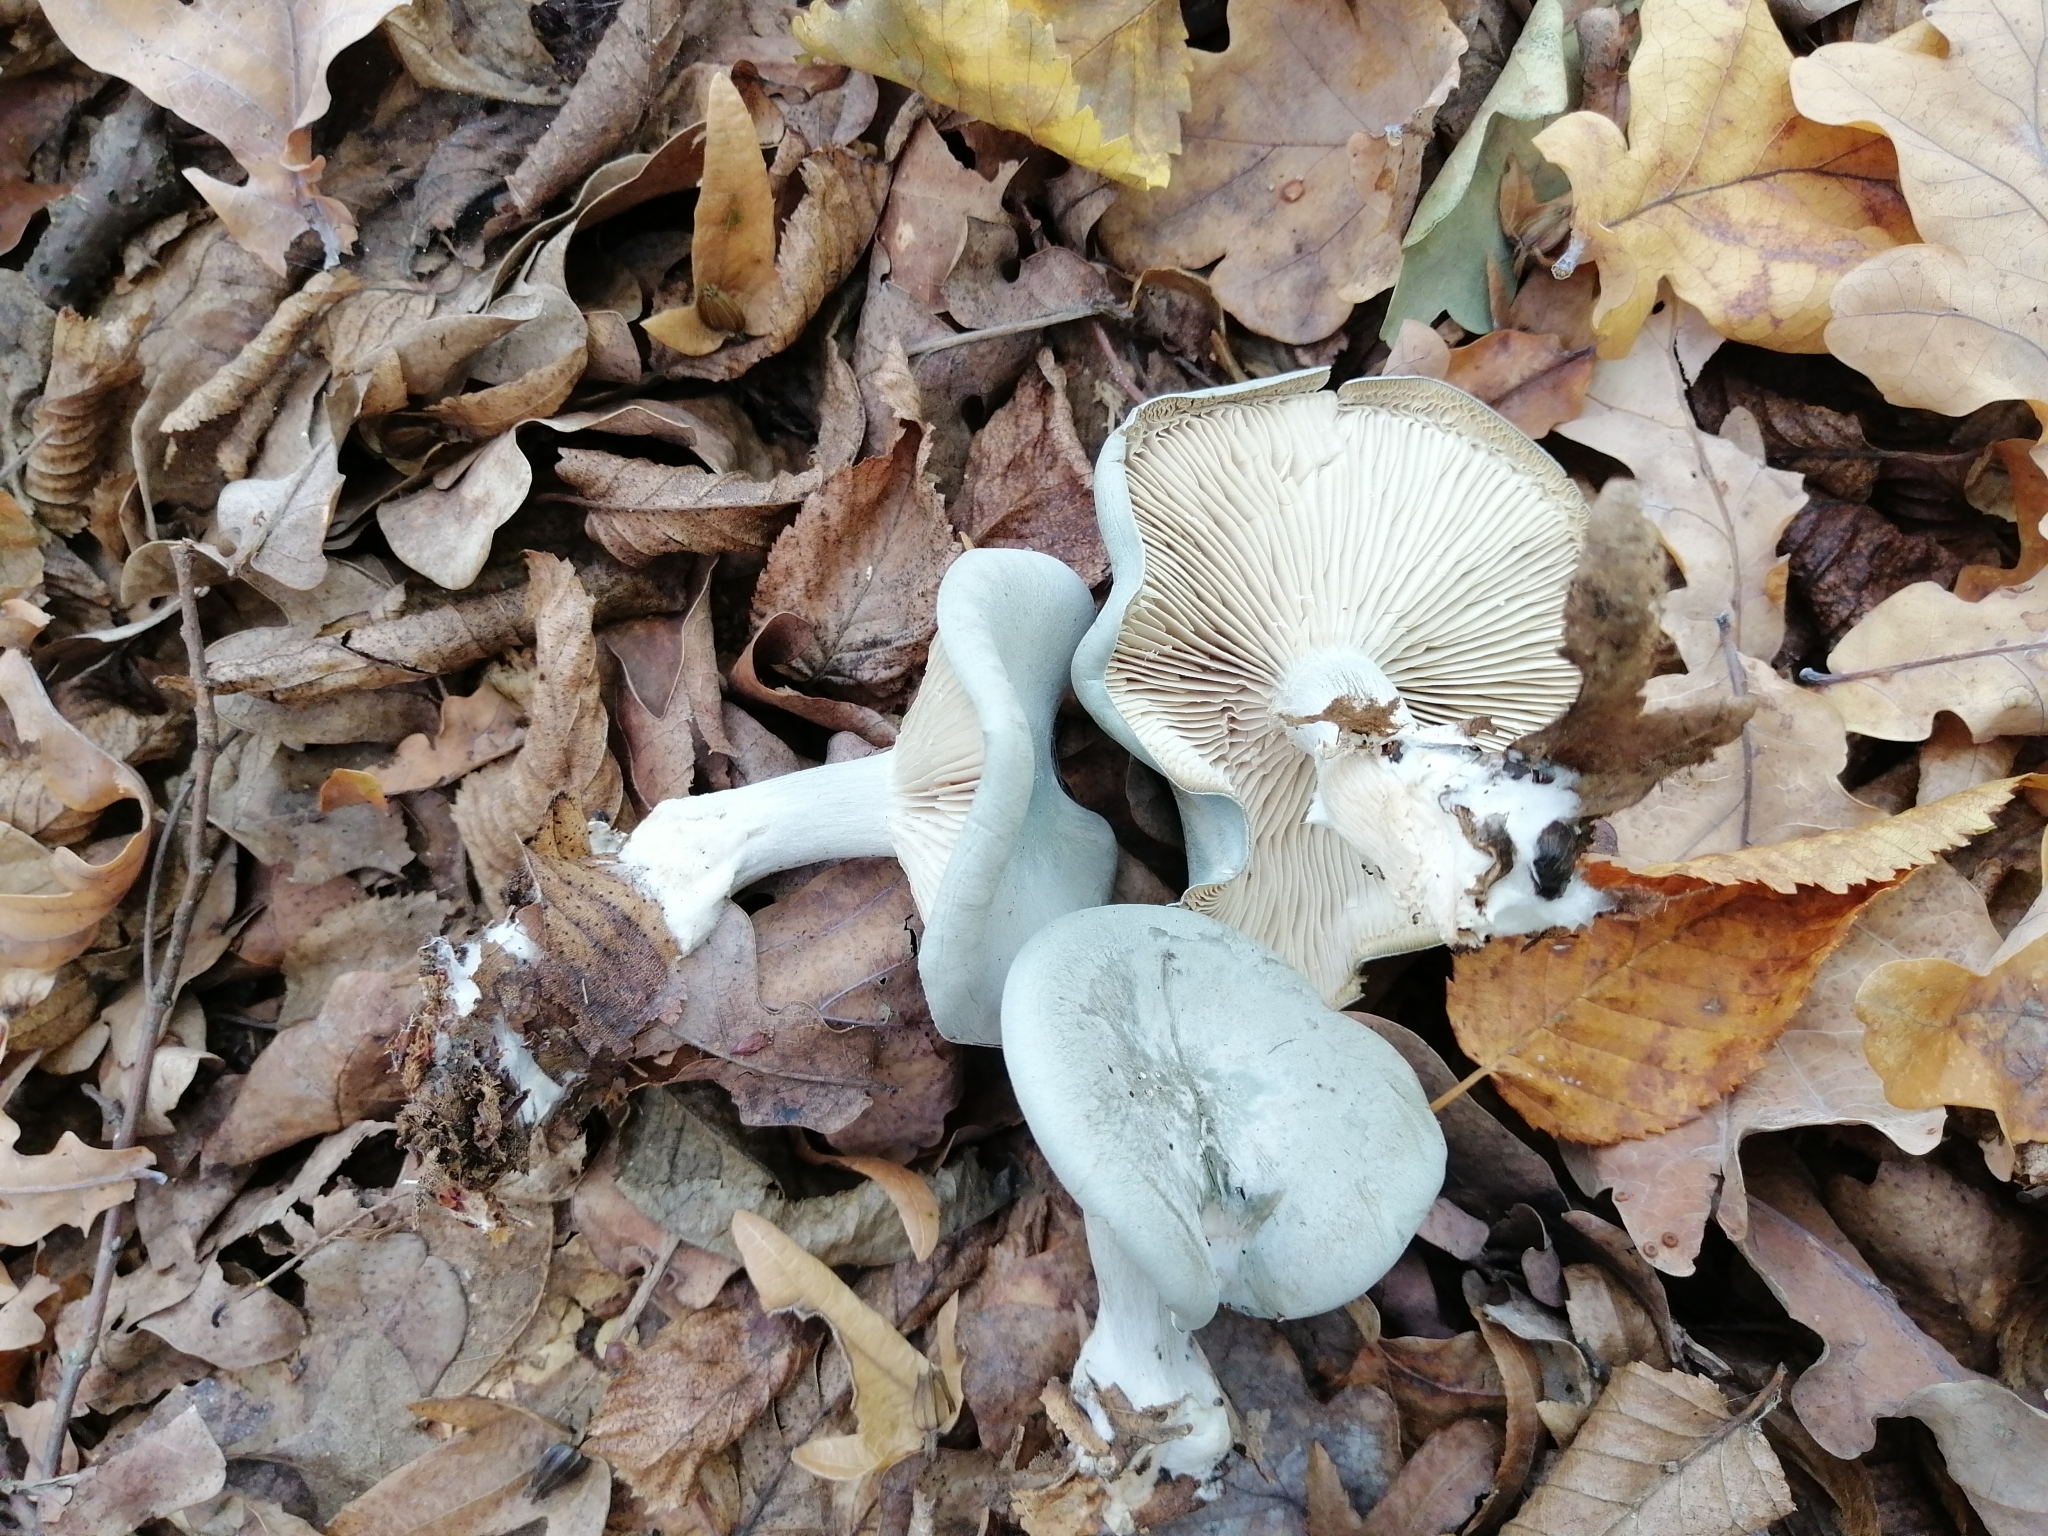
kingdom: Fungi
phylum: Basidiomycota
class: Agaricomycetes
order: Agaricales
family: Tricholomataceae
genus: Collybia
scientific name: Collybia
